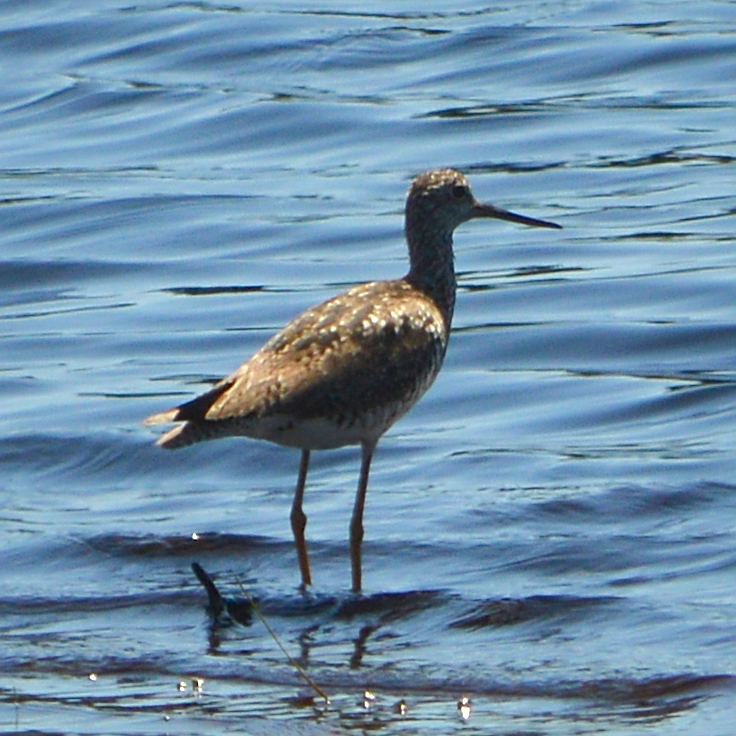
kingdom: Animalia
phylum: Chordata
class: Aves
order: Charadriiformes
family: Scolopacidae
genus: Tringa
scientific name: Tringa melanoleuca
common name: Greater yellowlegs
